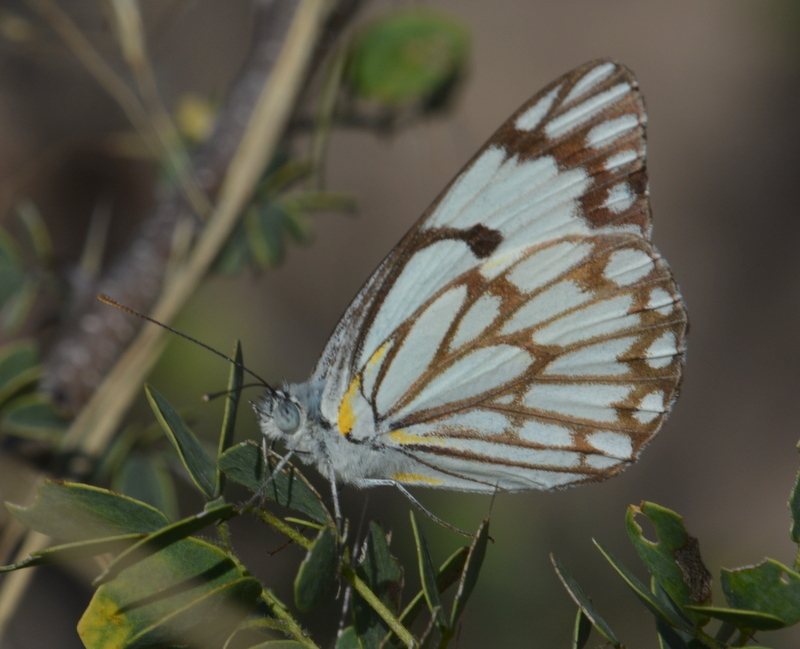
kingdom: Animalia
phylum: Arthropoda
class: Insecta
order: Lepidoptera
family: Pieridae
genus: Belenois
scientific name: Belenois aurota
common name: Brown-veined white
